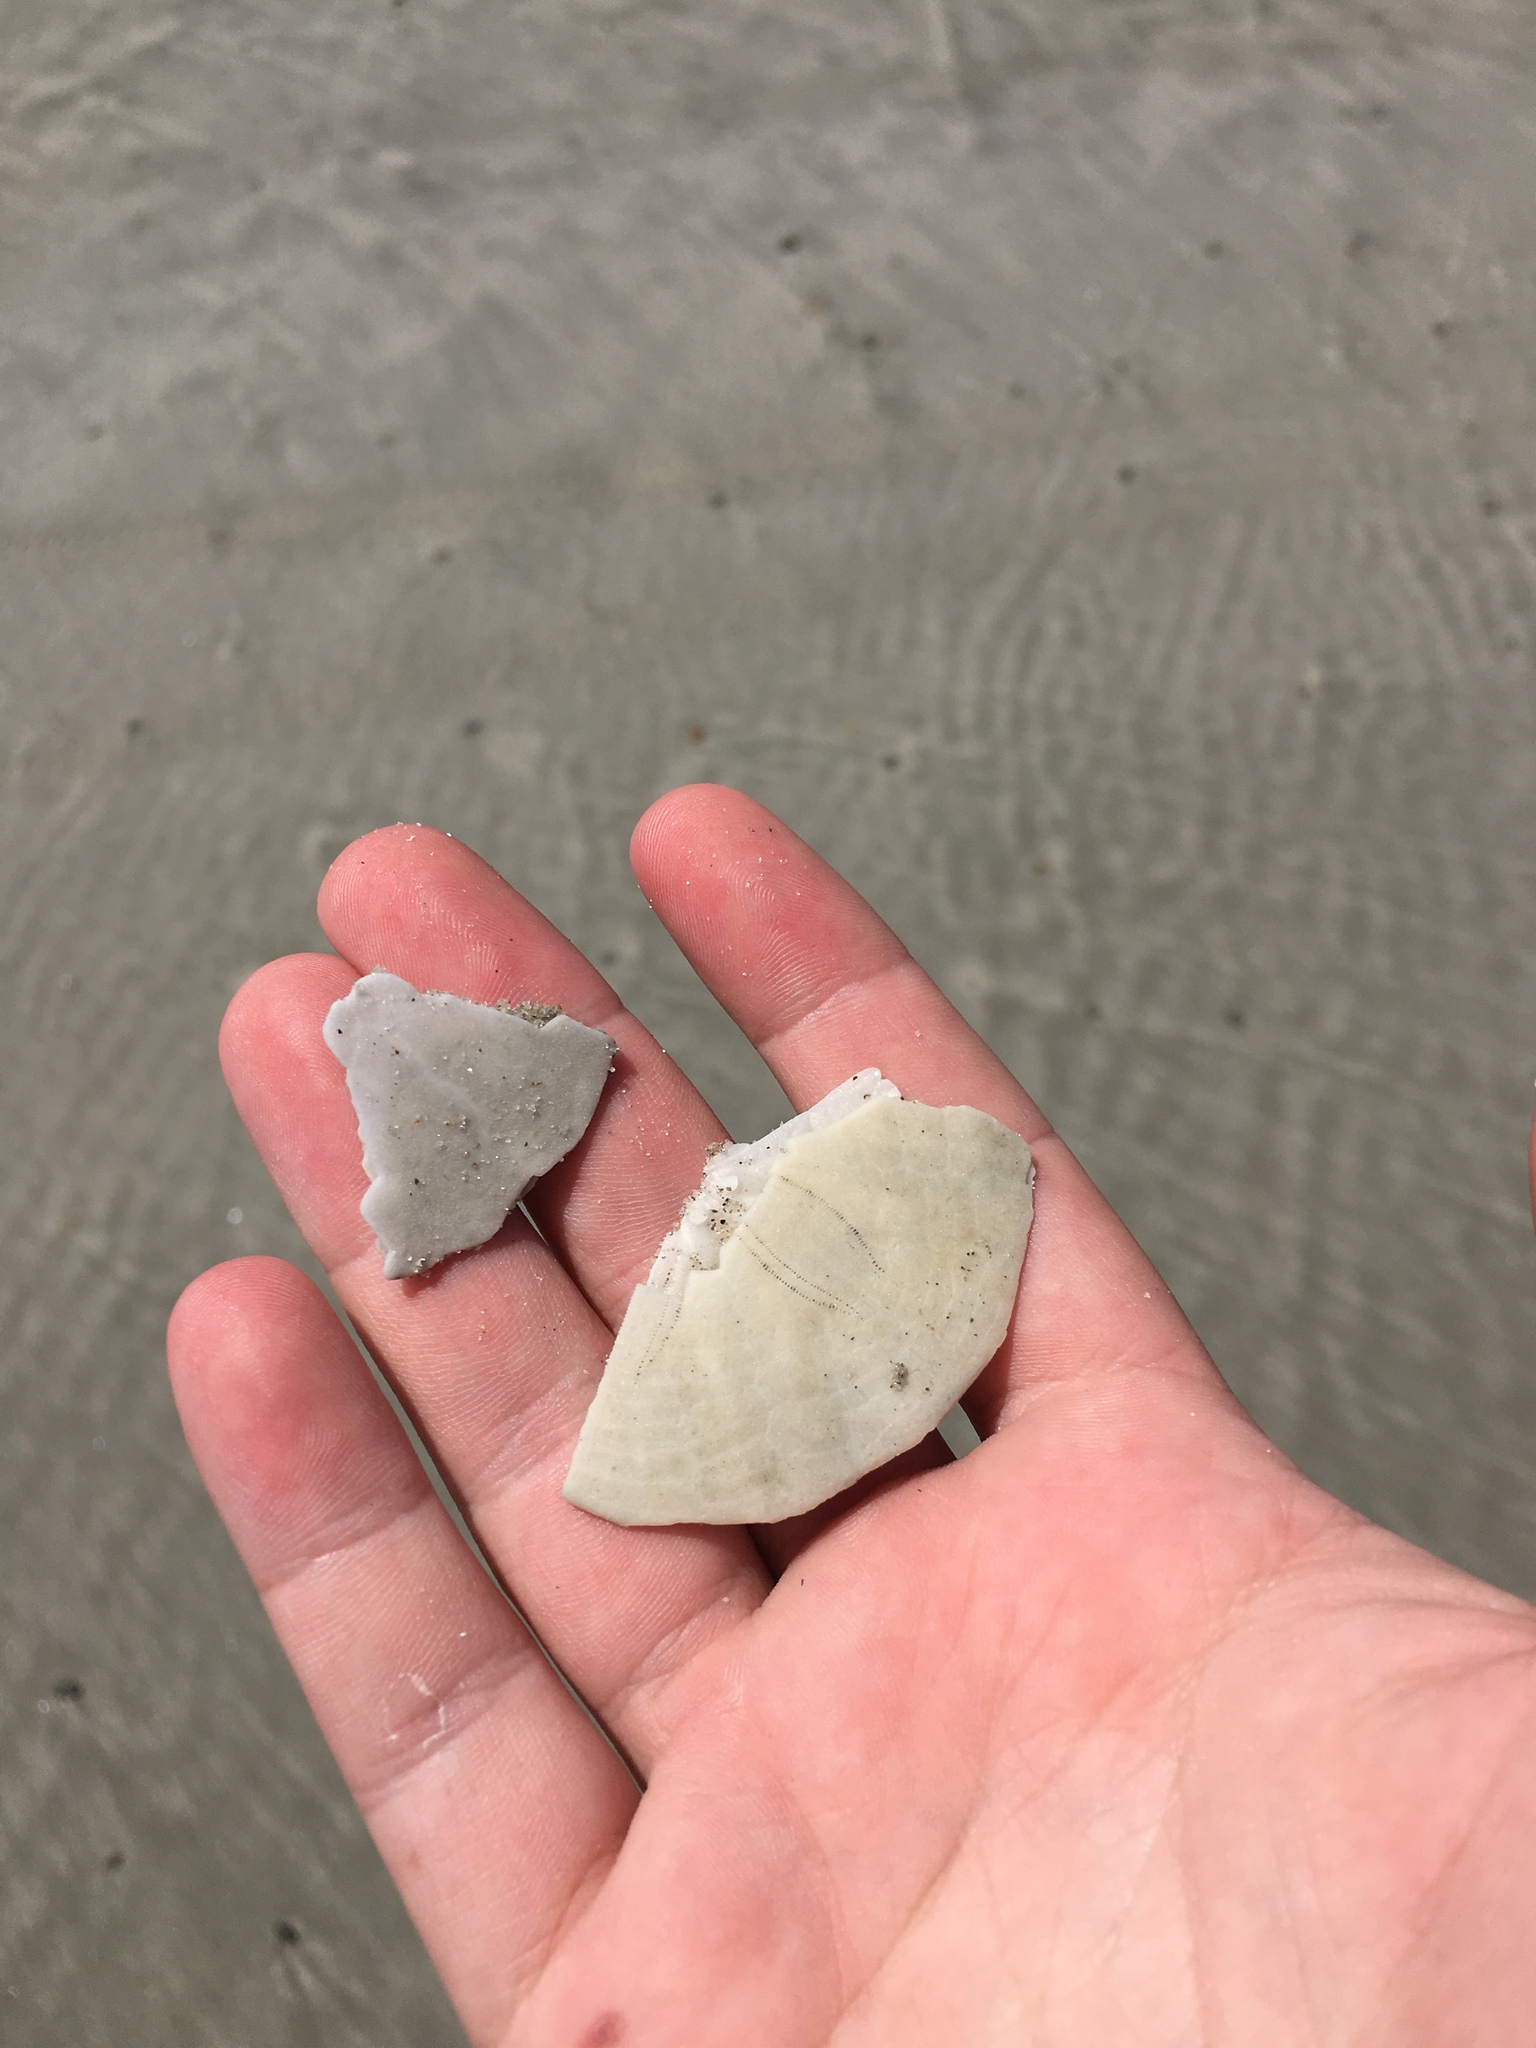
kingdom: Animalia
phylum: Echinodermata
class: Echinoidea
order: Echinolampadacea
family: Echinarachniidae
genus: Echinarachnius
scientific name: Echinarachnius parma
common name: Common sand dollar
